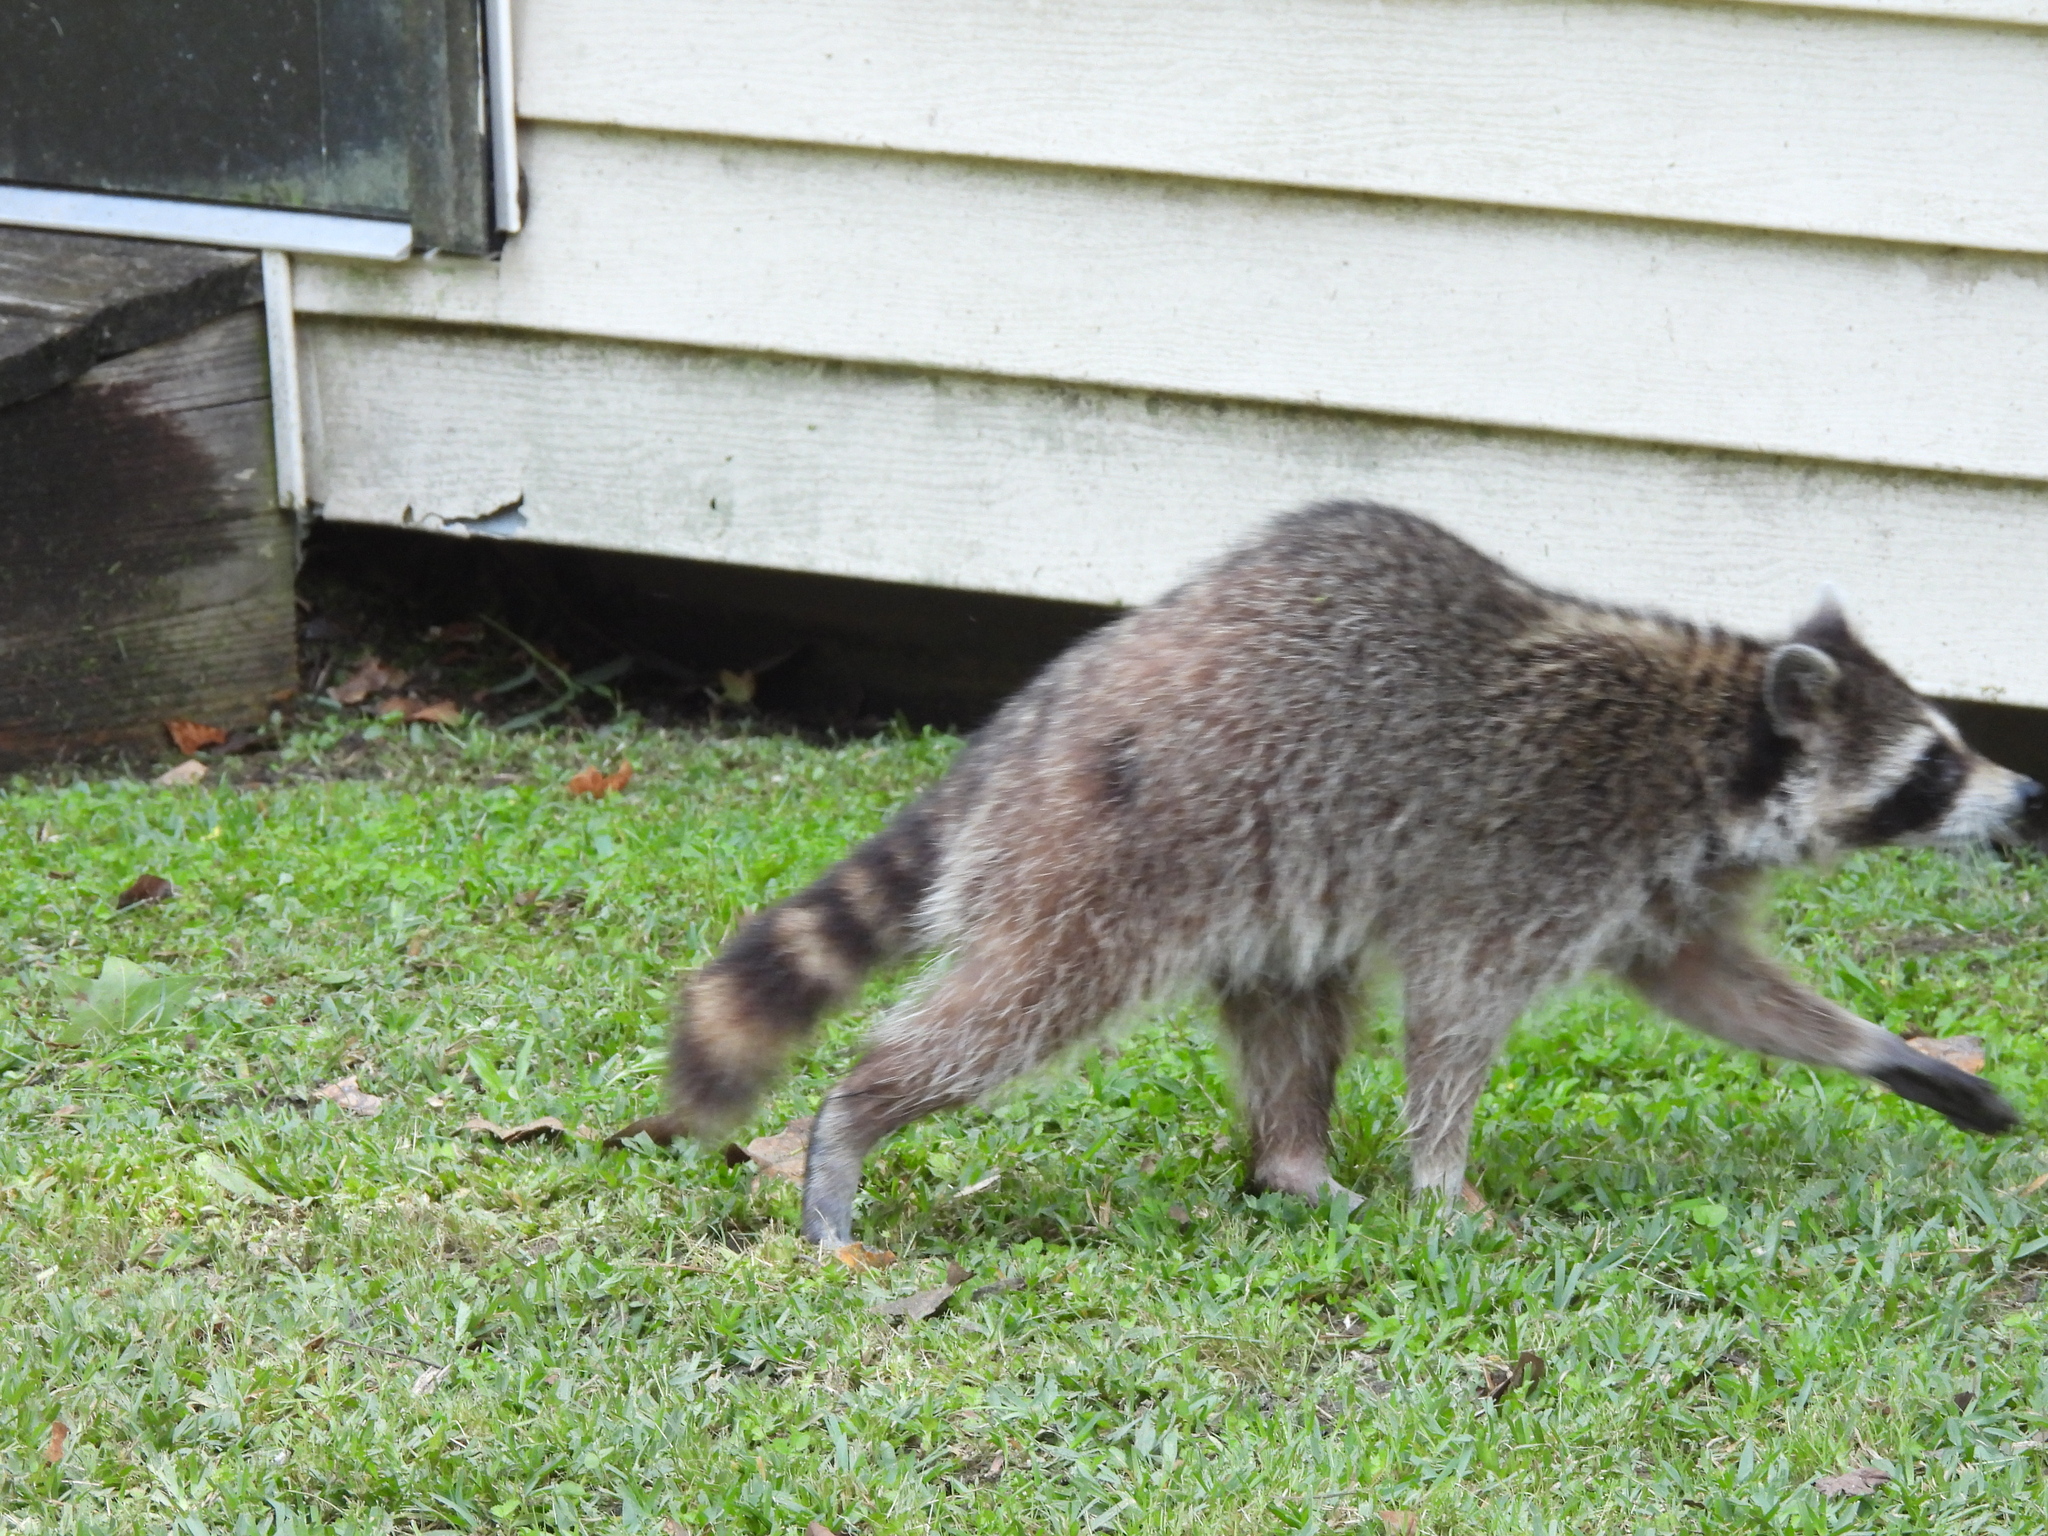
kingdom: Animalia
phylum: Chordata
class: Mammalia
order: Carnivora
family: Procyonidae
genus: Procyon
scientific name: Procyon lotor
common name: Raccoon
